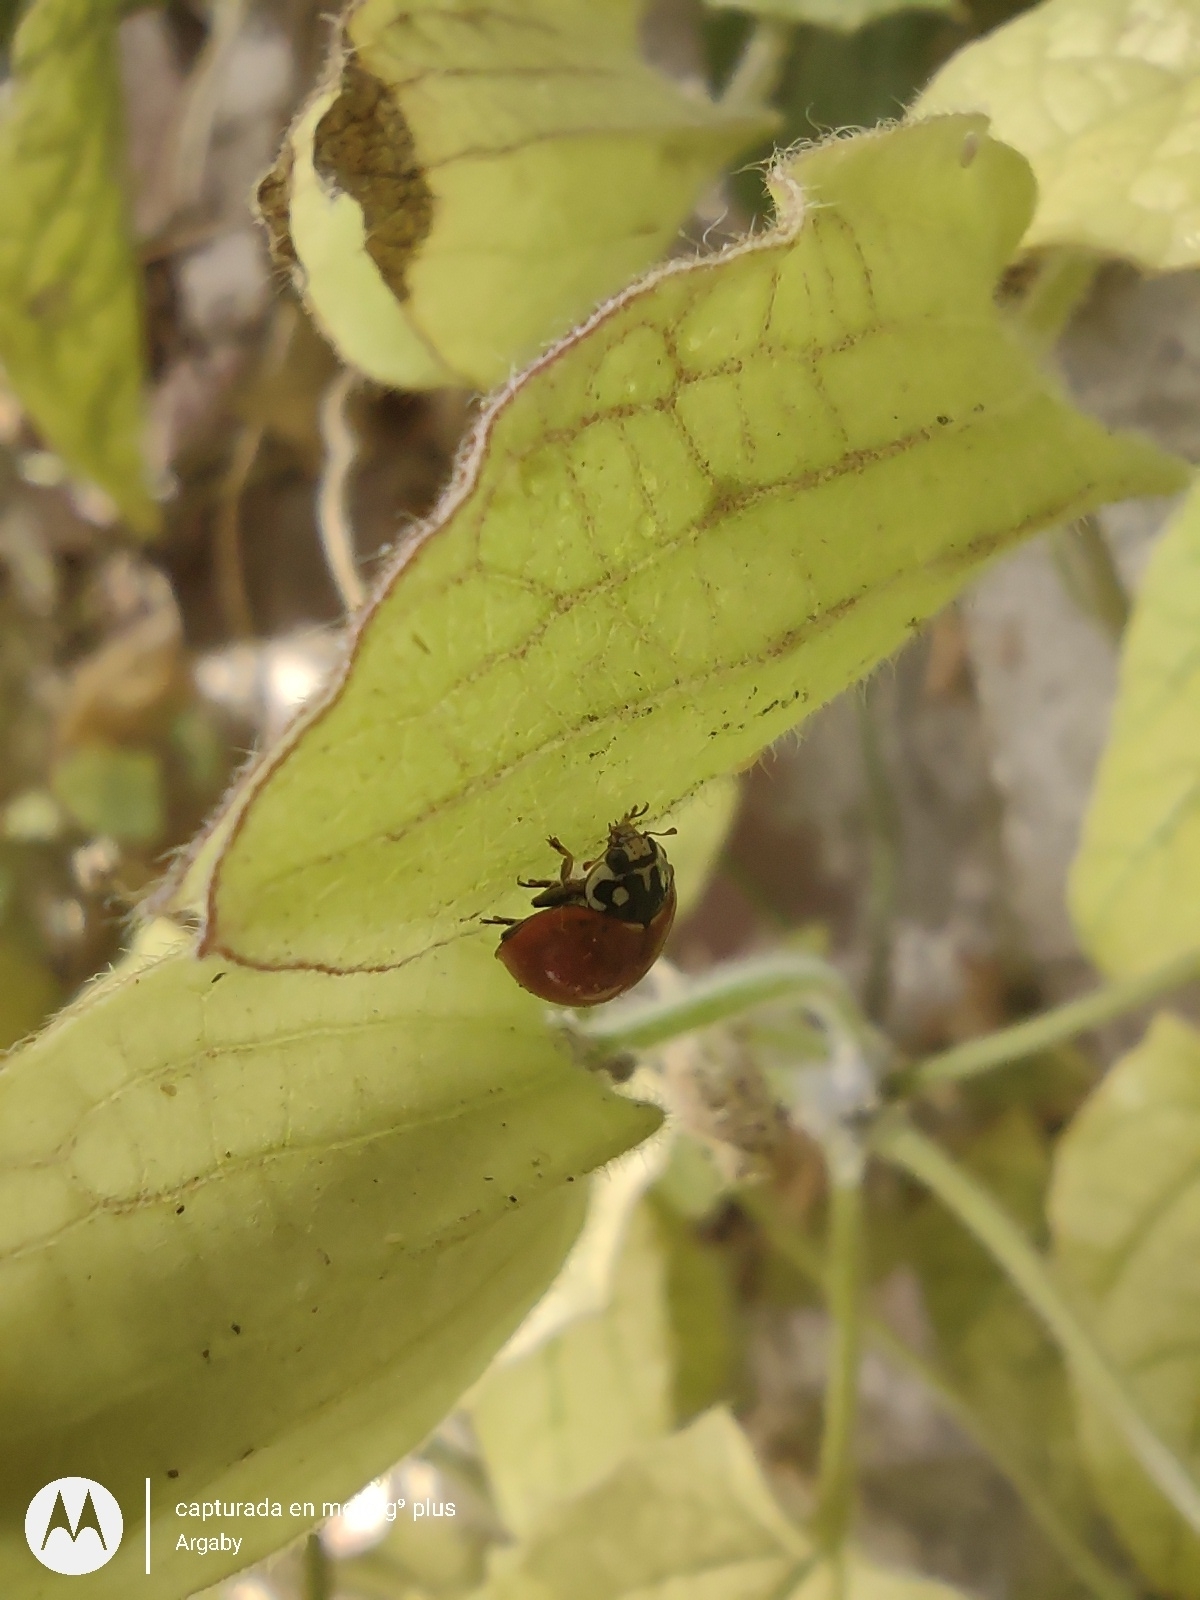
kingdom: Animalia
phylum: Arthropoda
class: Insecta
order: Coleoptera
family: Coccinellidae
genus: Cycloneda
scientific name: Cycloneda sanguinea
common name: Ladybird beetle
